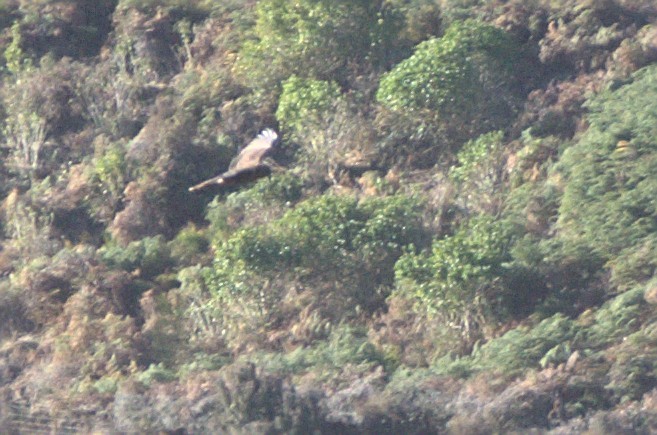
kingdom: Animalia
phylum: Chordata
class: Aves
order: Accipitriformes
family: Accipitridae
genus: Circus
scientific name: Circus approximans
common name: Swamp harrier
